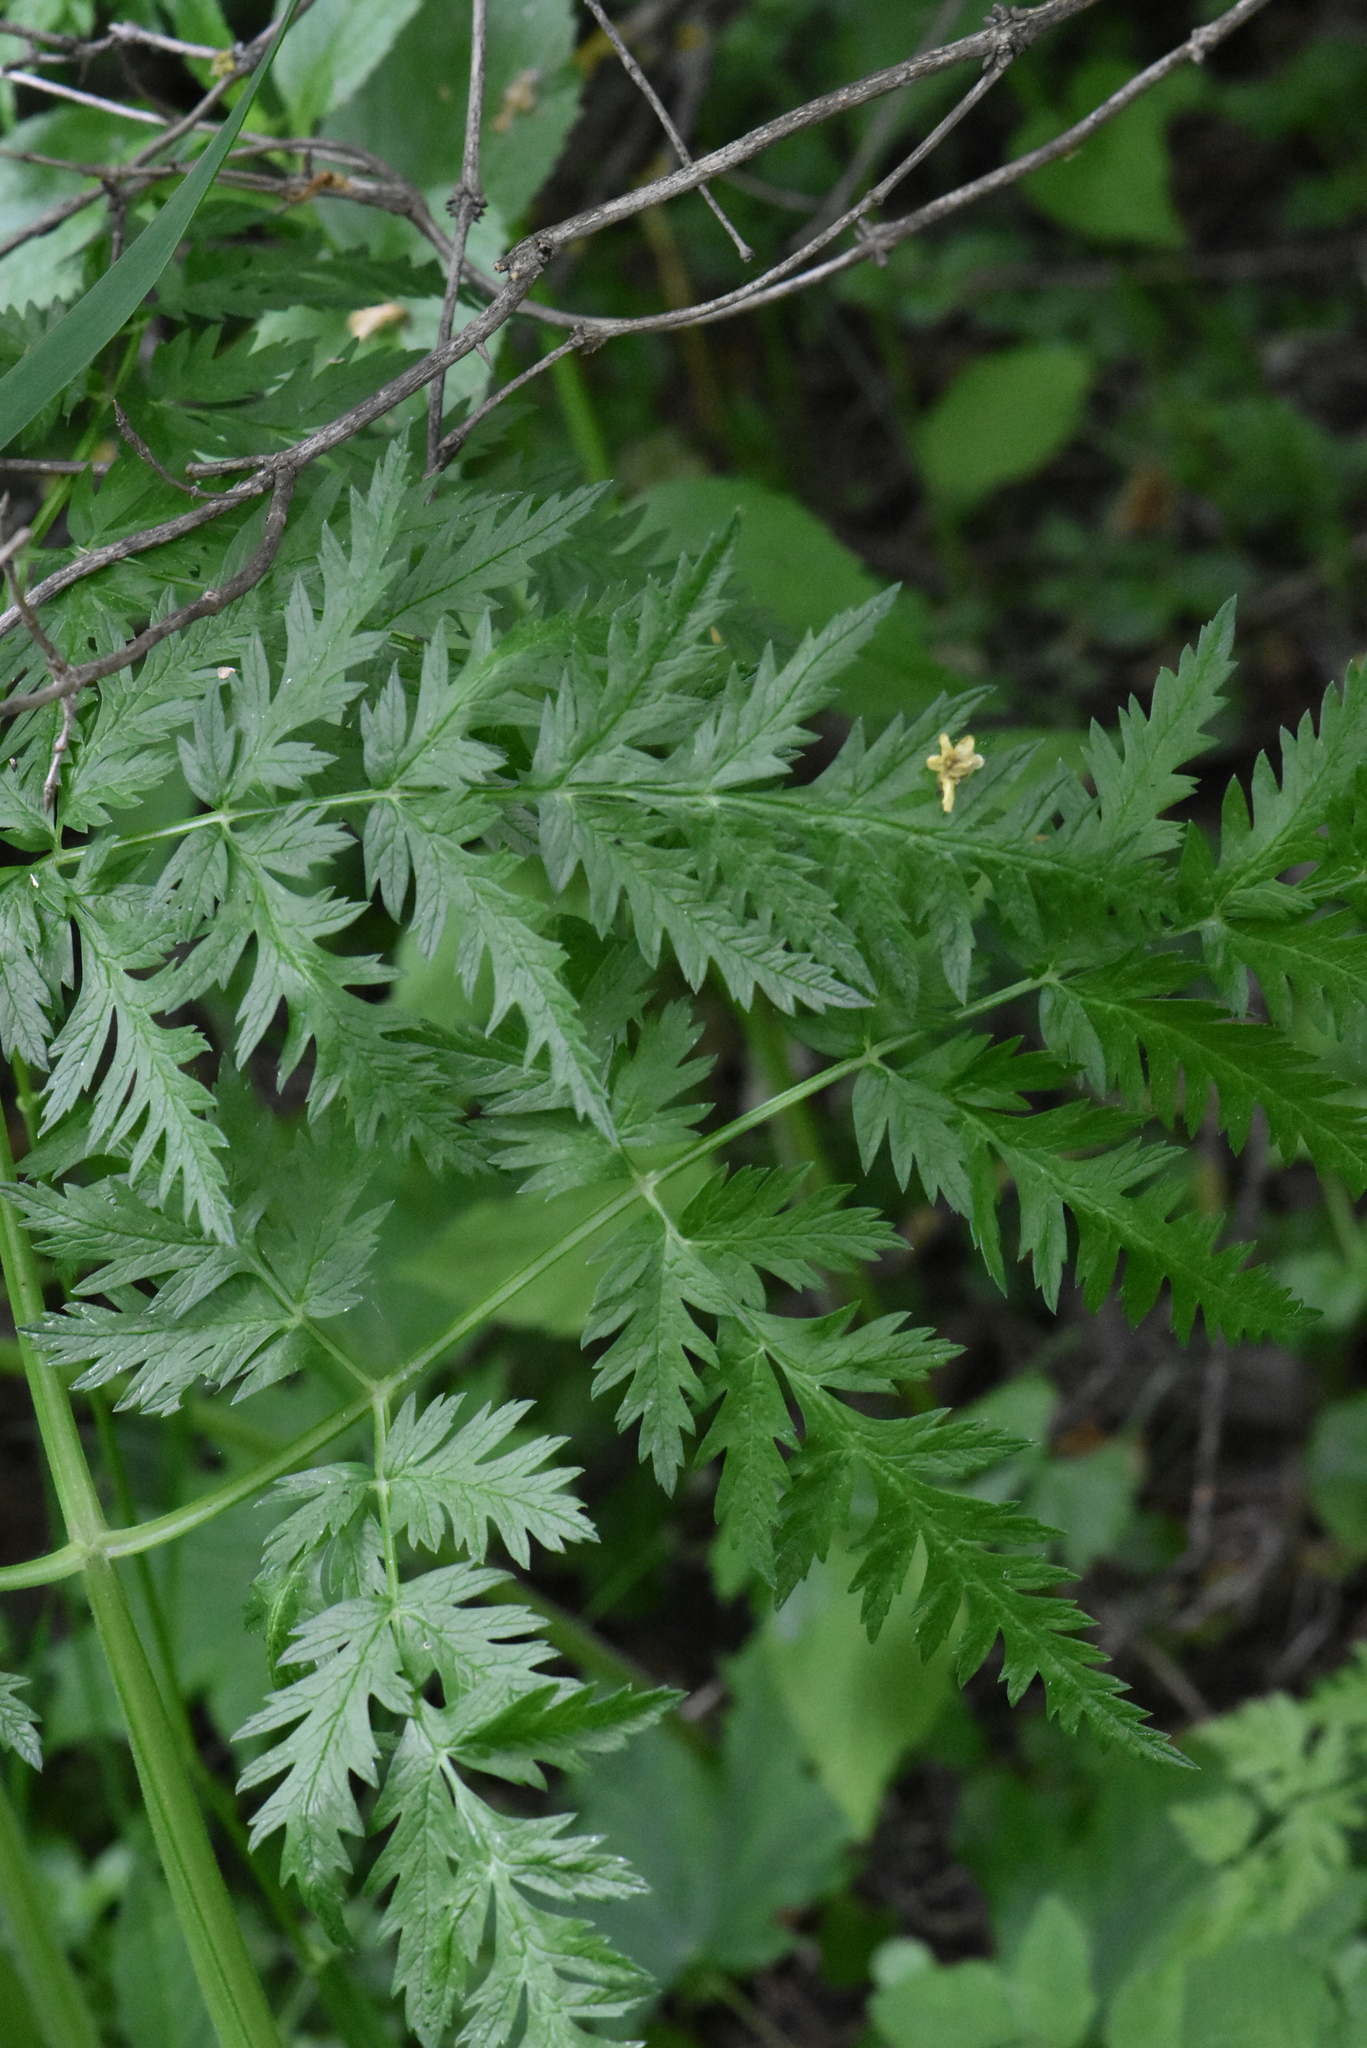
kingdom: Plantae
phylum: Tracheophyta
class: Magnoliopsida
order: Apiales
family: Apiaceae
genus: Seseli
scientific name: Seseli libanotis
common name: Mooncarrot
